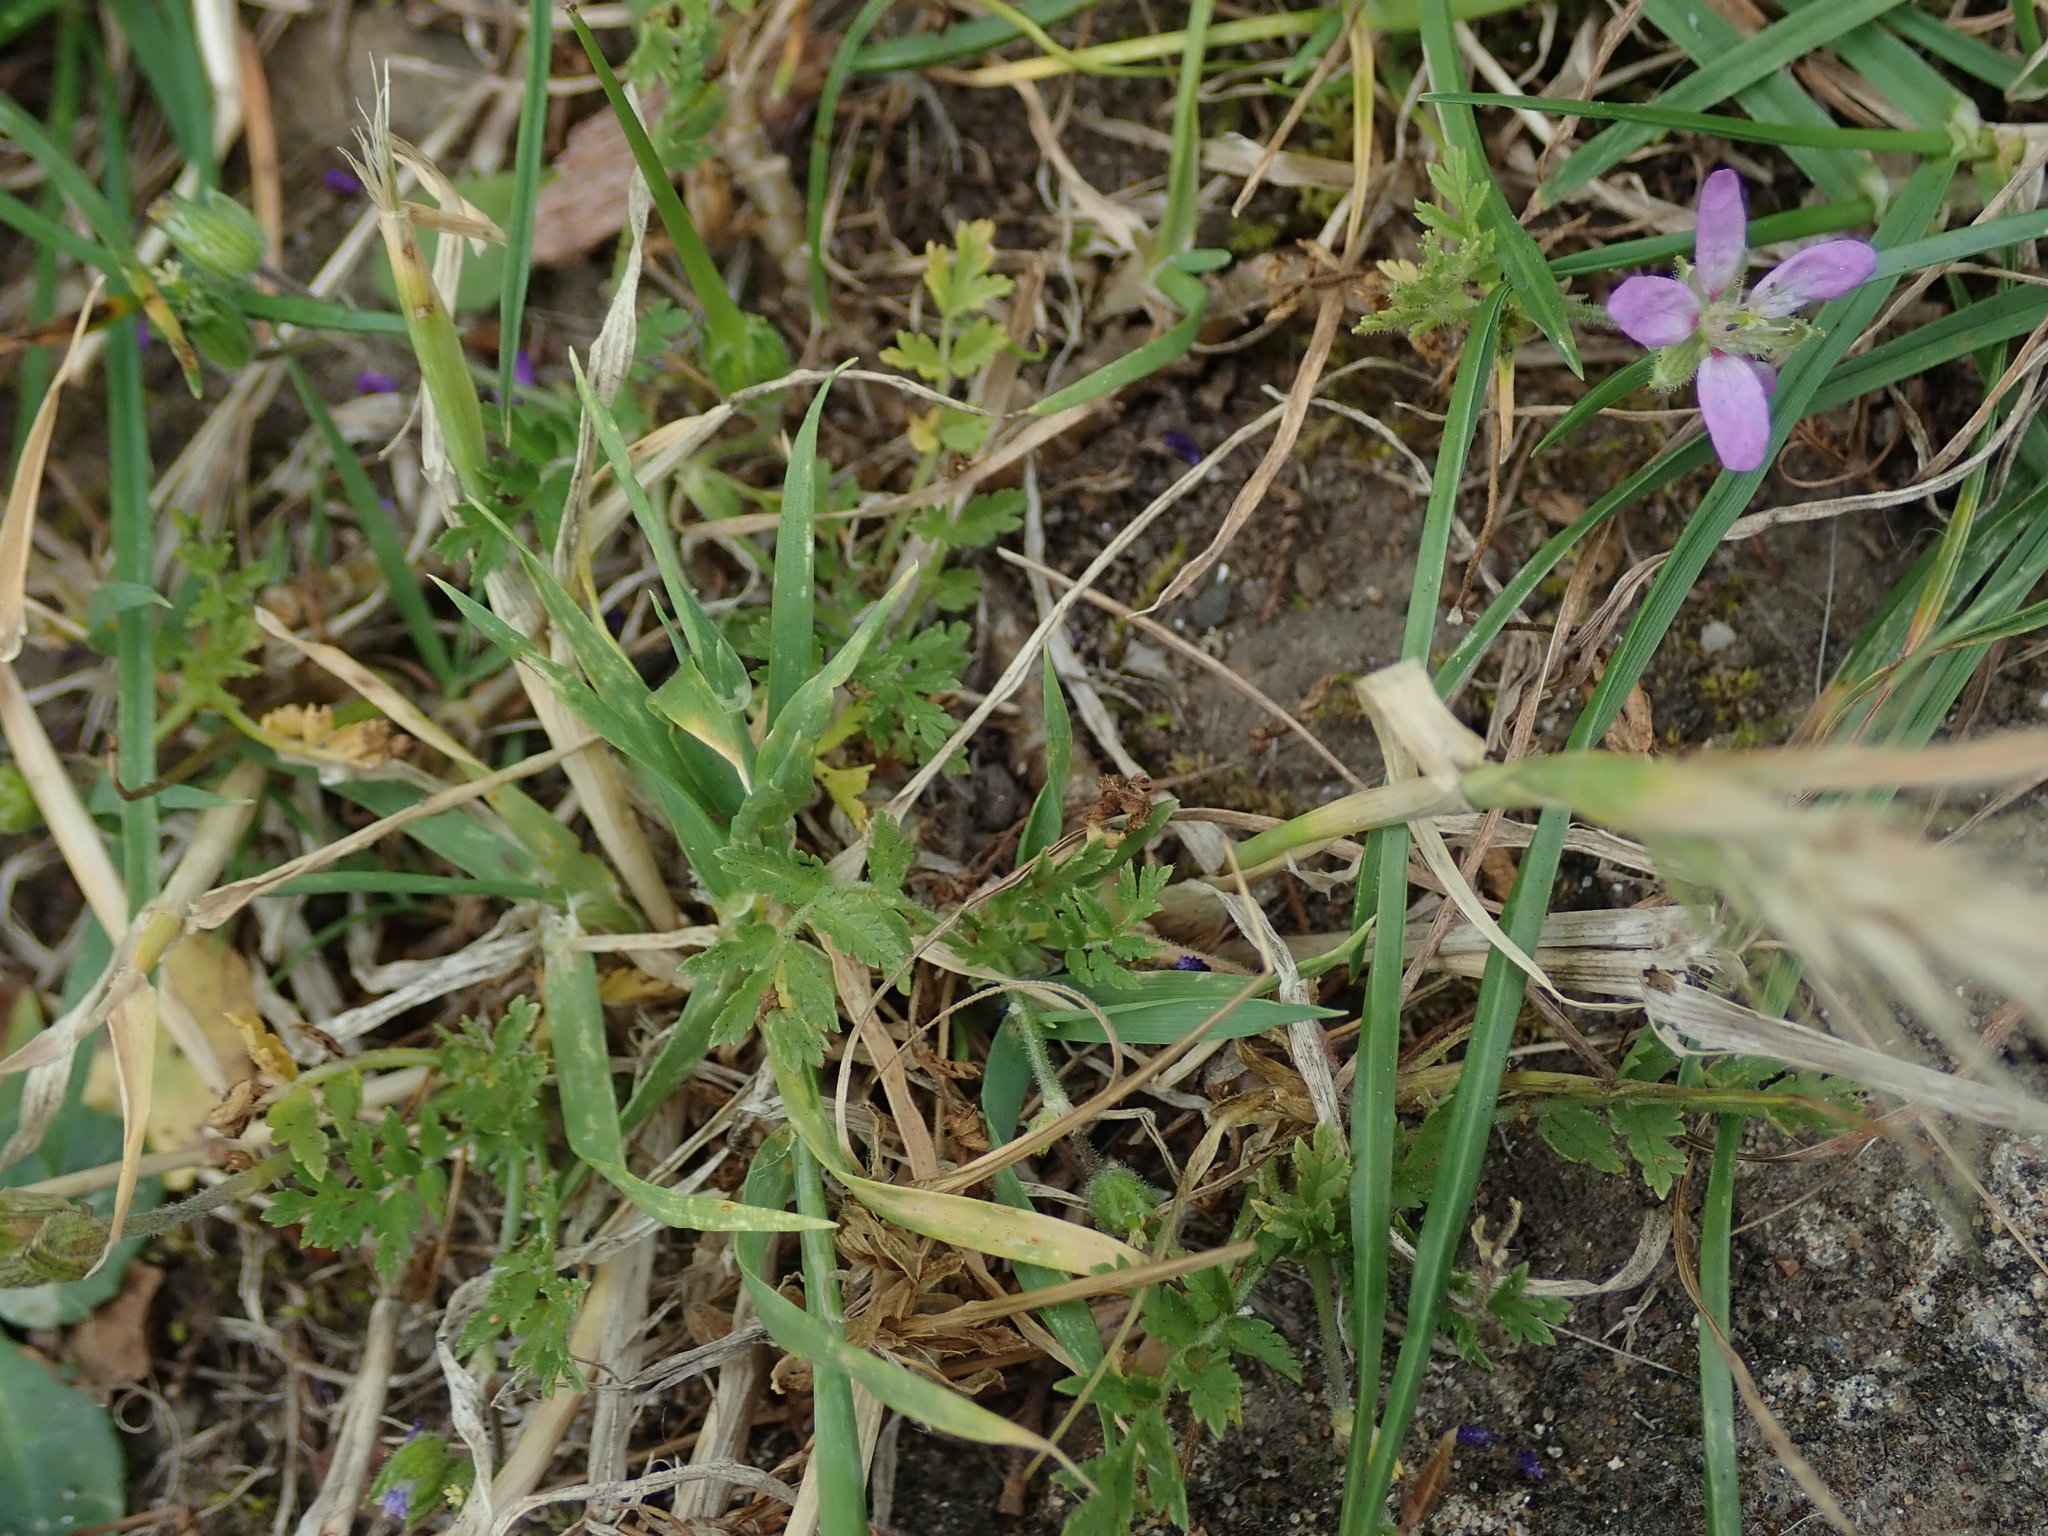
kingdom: Plantae
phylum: Tracheophyta
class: Magnoliopsida
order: Geraniales
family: Geraniaceae
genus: Erodium
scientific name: Erodium moschatum
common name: Musk stork's-bill
